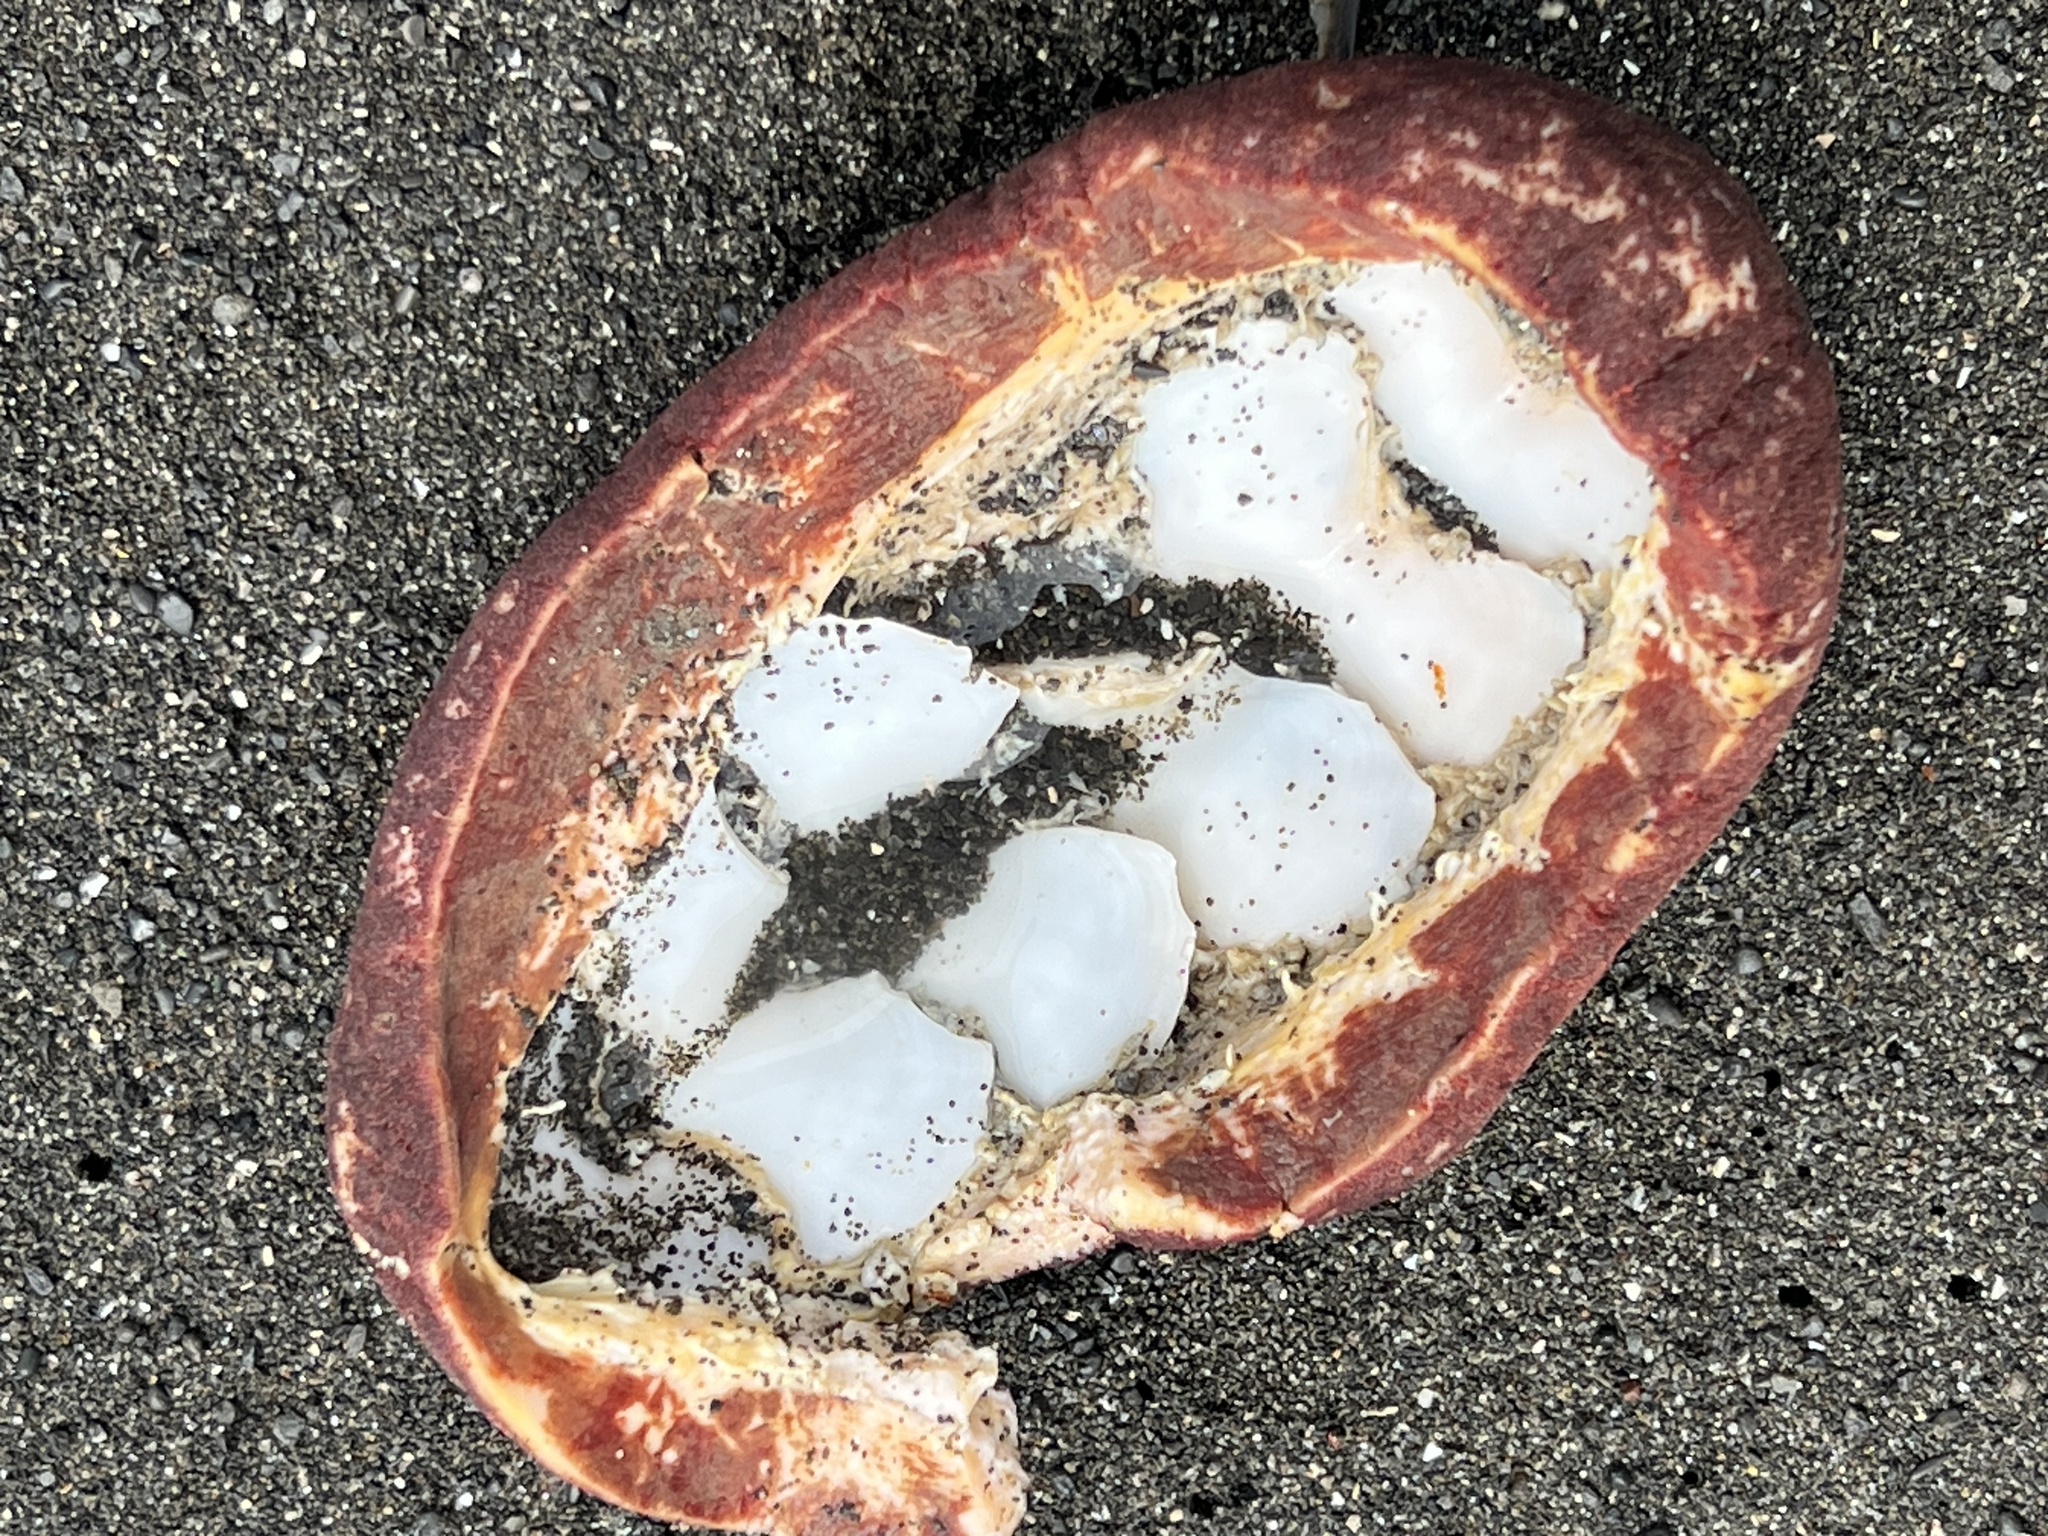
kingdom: Animalia
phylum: Mollusca
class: Polyplacophora
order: Chitonida
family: Acanthochitonidae
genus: Cryptochiton
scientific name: Cryptochiton stelleri
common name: Giant pacific chiton
